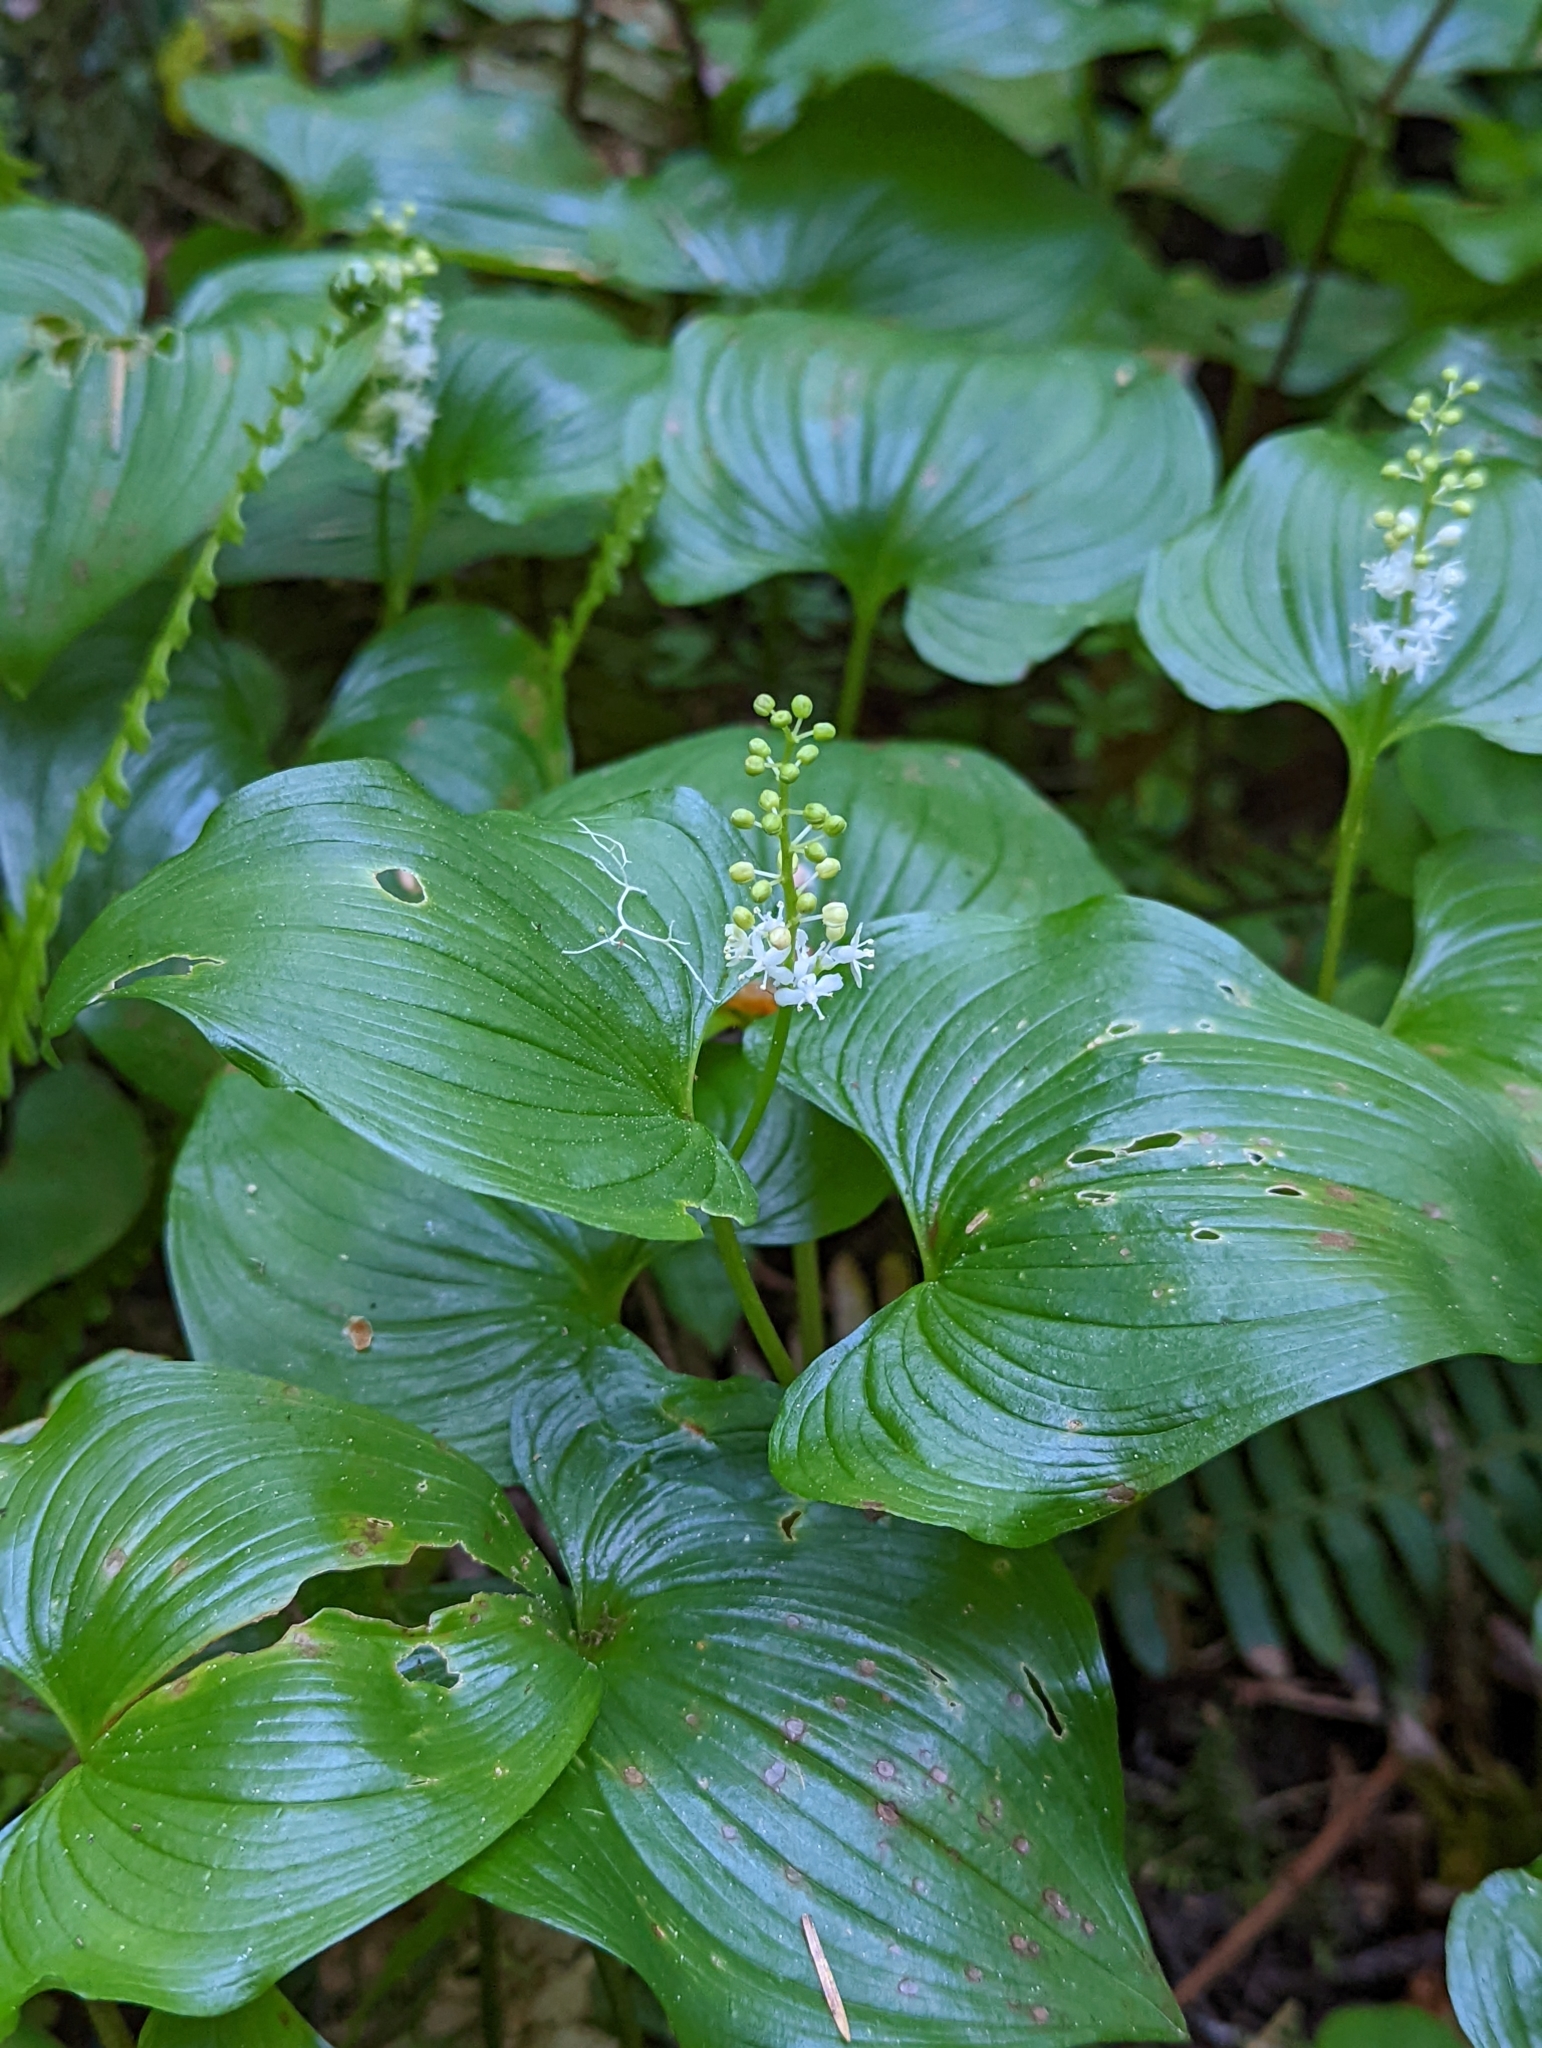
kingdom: Plantae
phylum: Tracheophyta
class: Liliopsida
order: Asparagales
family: Asparagaceae
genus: Maianthemum
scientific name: Maianthemum dilatatum
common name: False lily-of-the-valley
